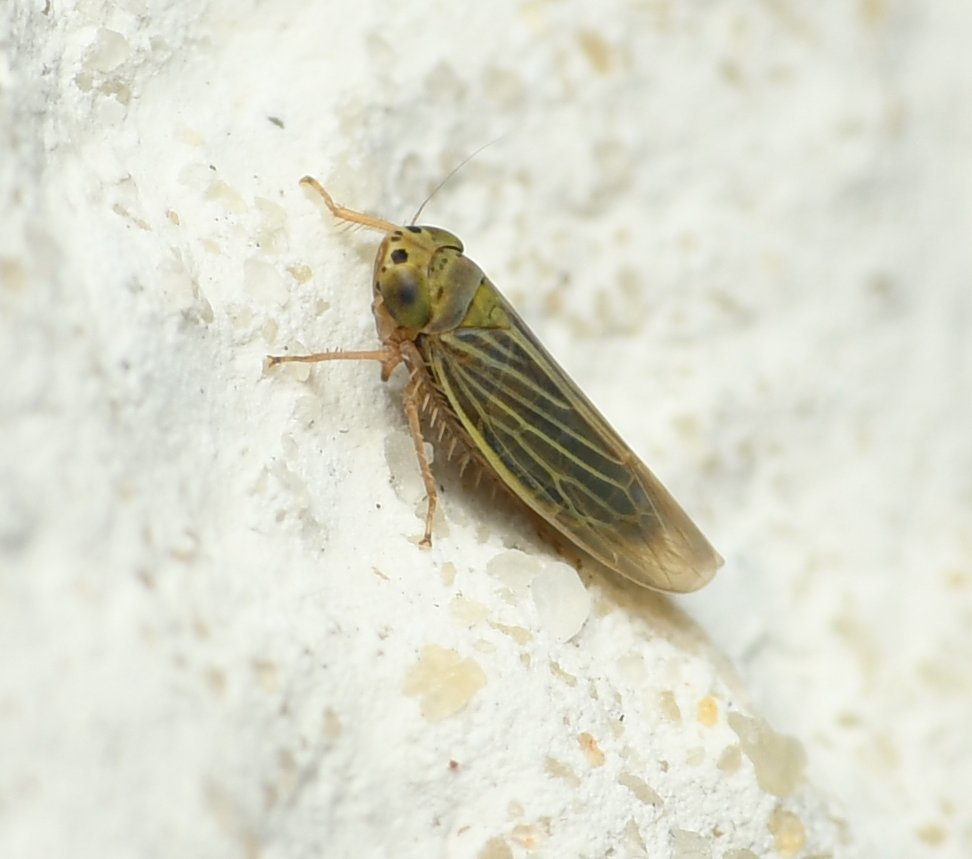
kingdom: Animalia
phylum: Arthropoda
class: Insecta
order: Hemiptera
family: Cicadellidae
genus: Graminella
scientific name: Graminella cognita
